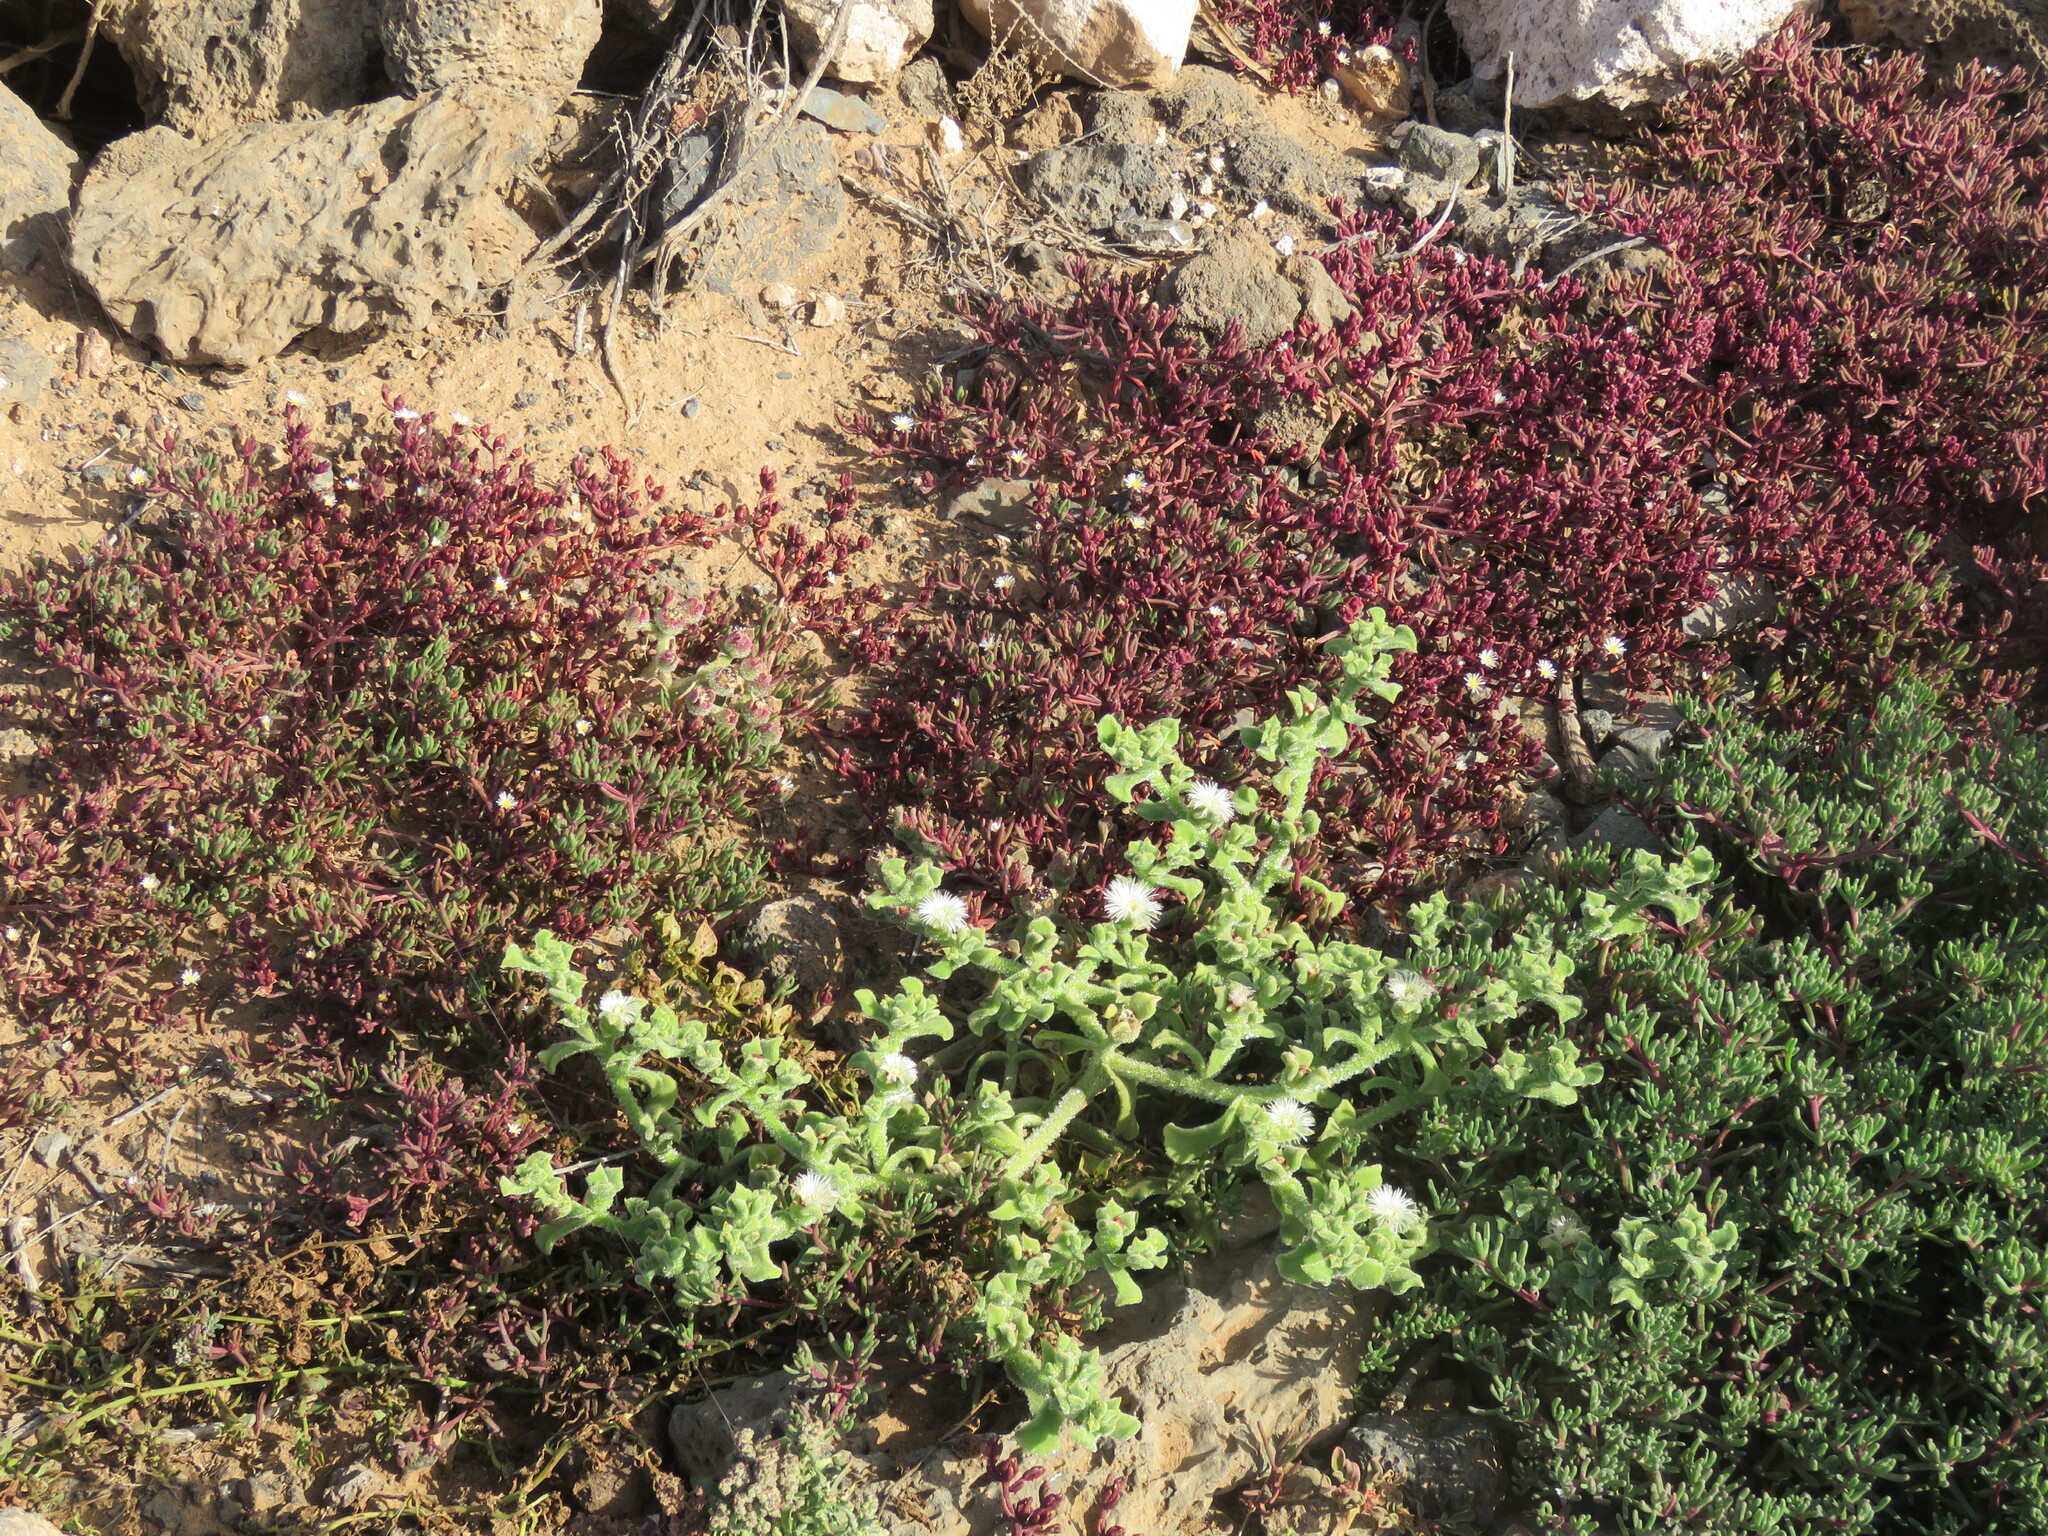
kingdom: Plantae
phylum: Tracheophyta
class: Magnoliopsida
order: Caryophyllales
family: Aizoaceae
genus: Mesembryanthemum
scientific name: Mesembryanthemum crystallinum
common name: Common iceplant
